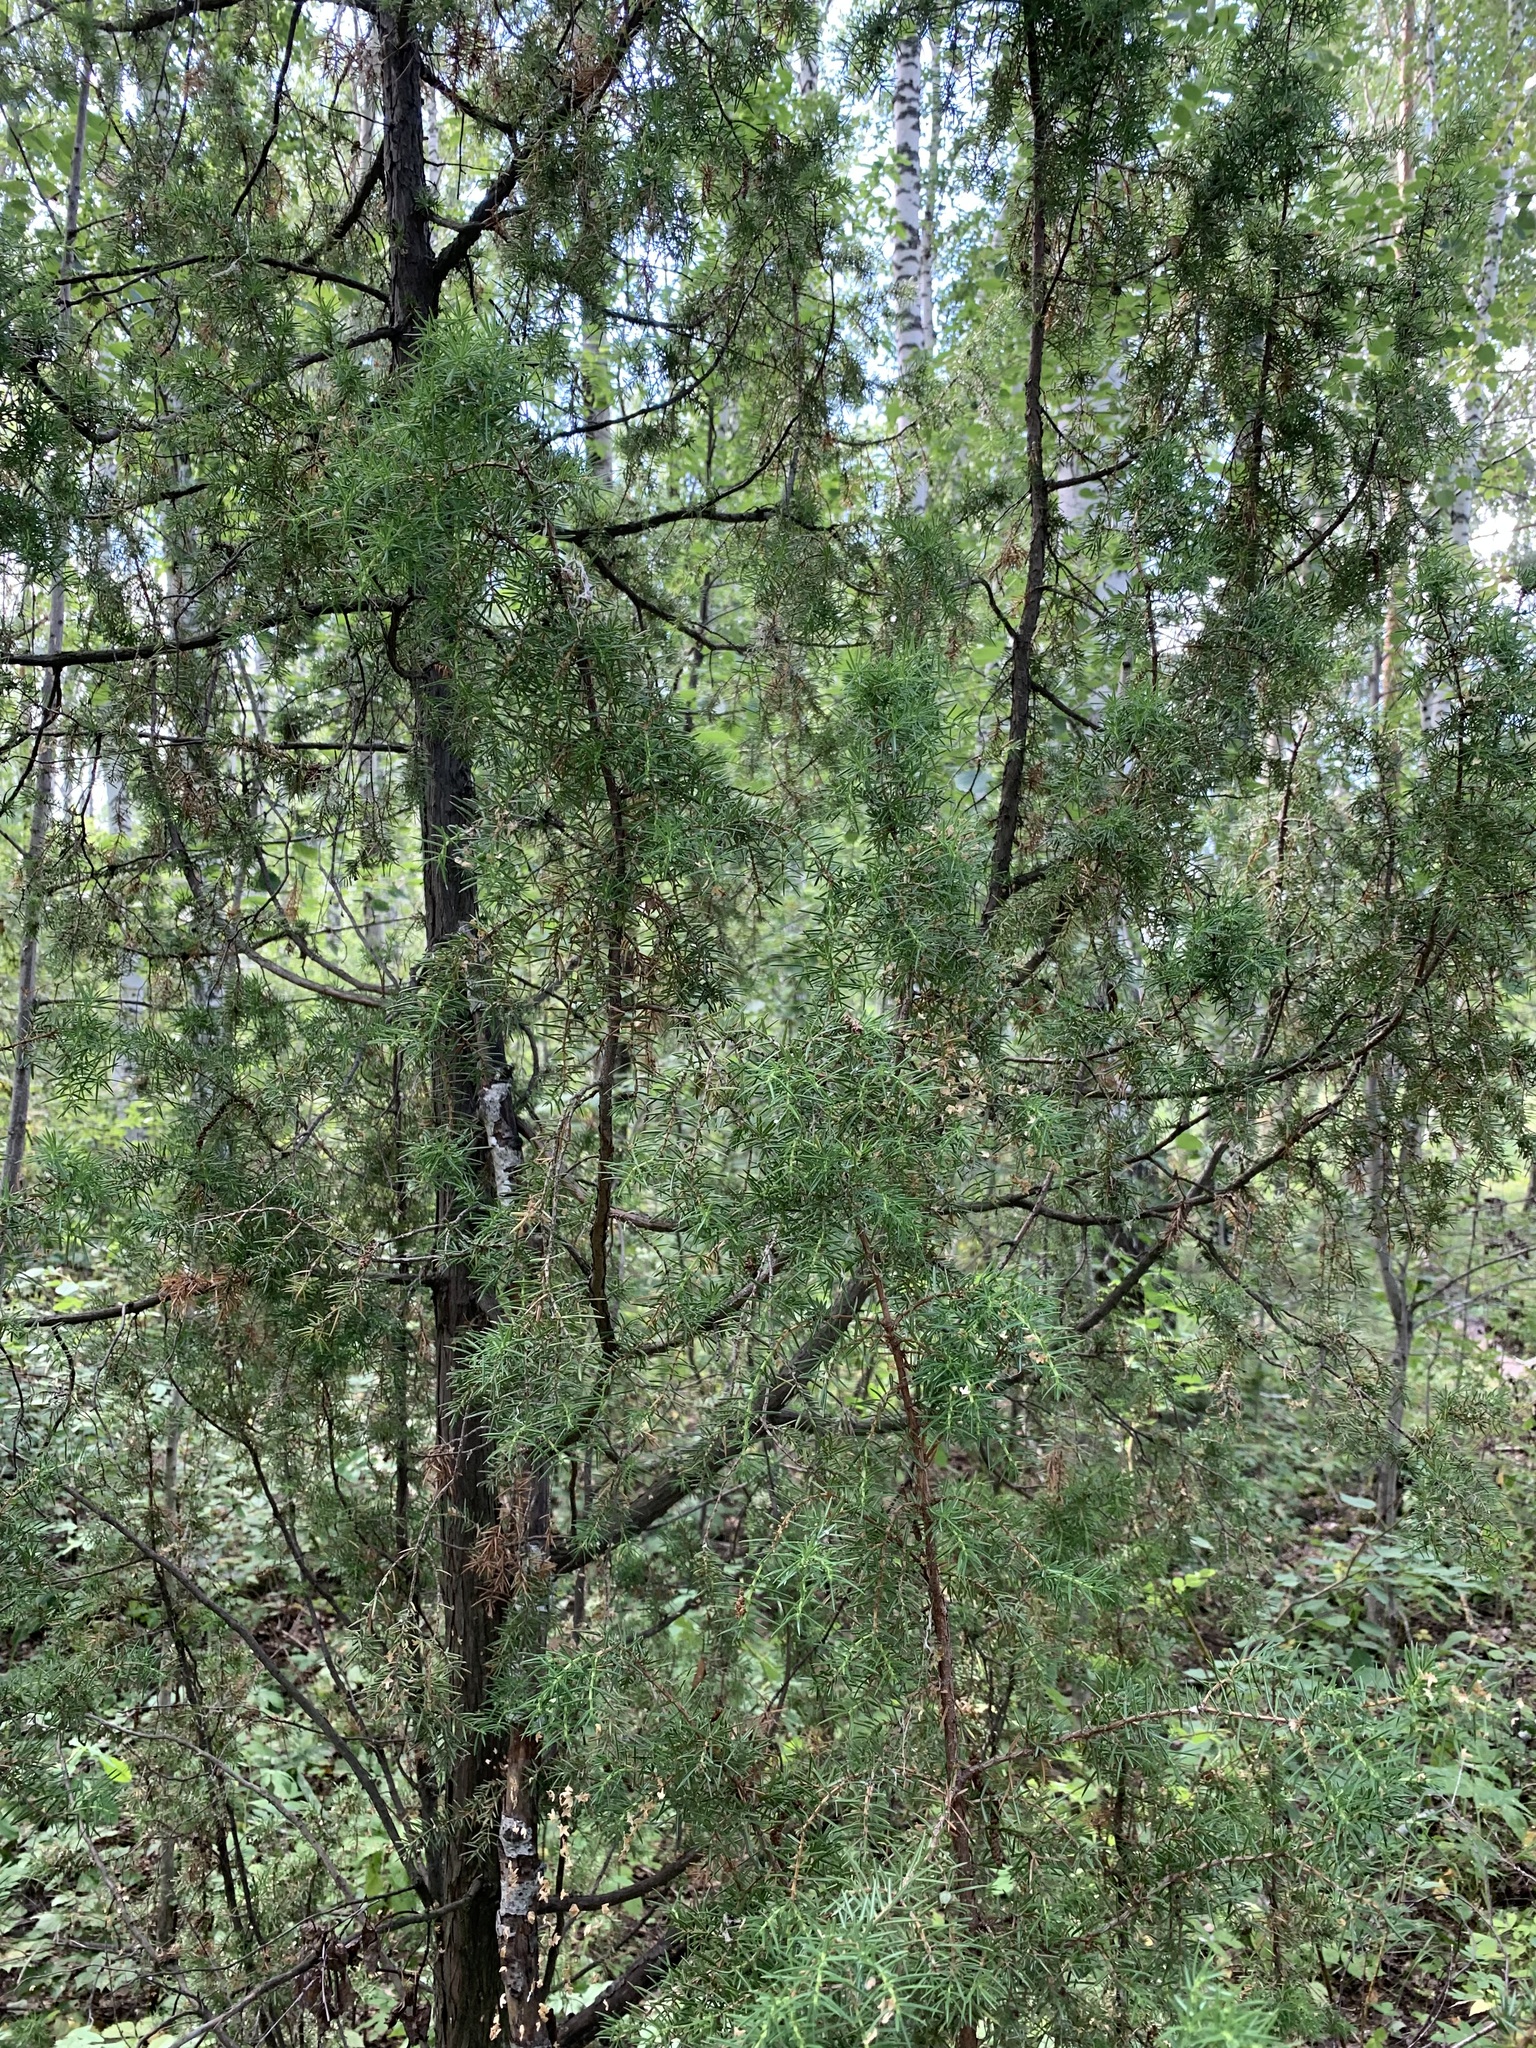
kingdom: Plantae
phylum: Tracheophyta
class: Pinopsida
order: Pinales
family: Cupressaceae
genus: Juniperus
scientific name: Juniperus communis
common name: Common juniper
